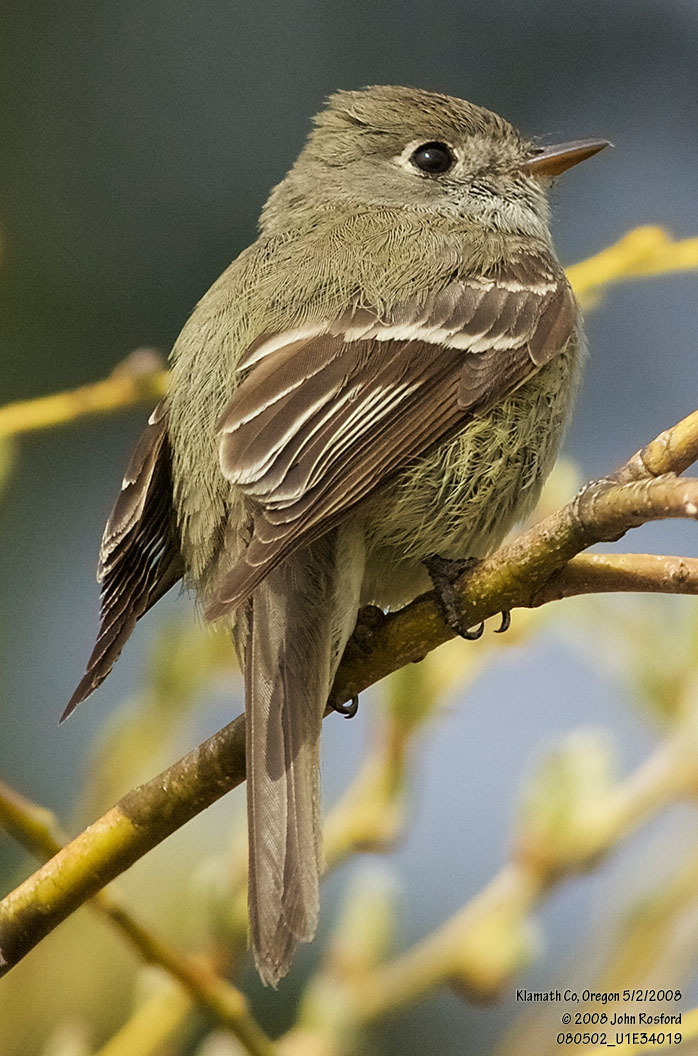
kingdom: Animalia
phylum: Chordata
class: Aves
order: Passeriformes
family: Tyrannidae
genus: Empidonax
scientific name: Empidonax hammondii
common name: Hammond's flycatcher
